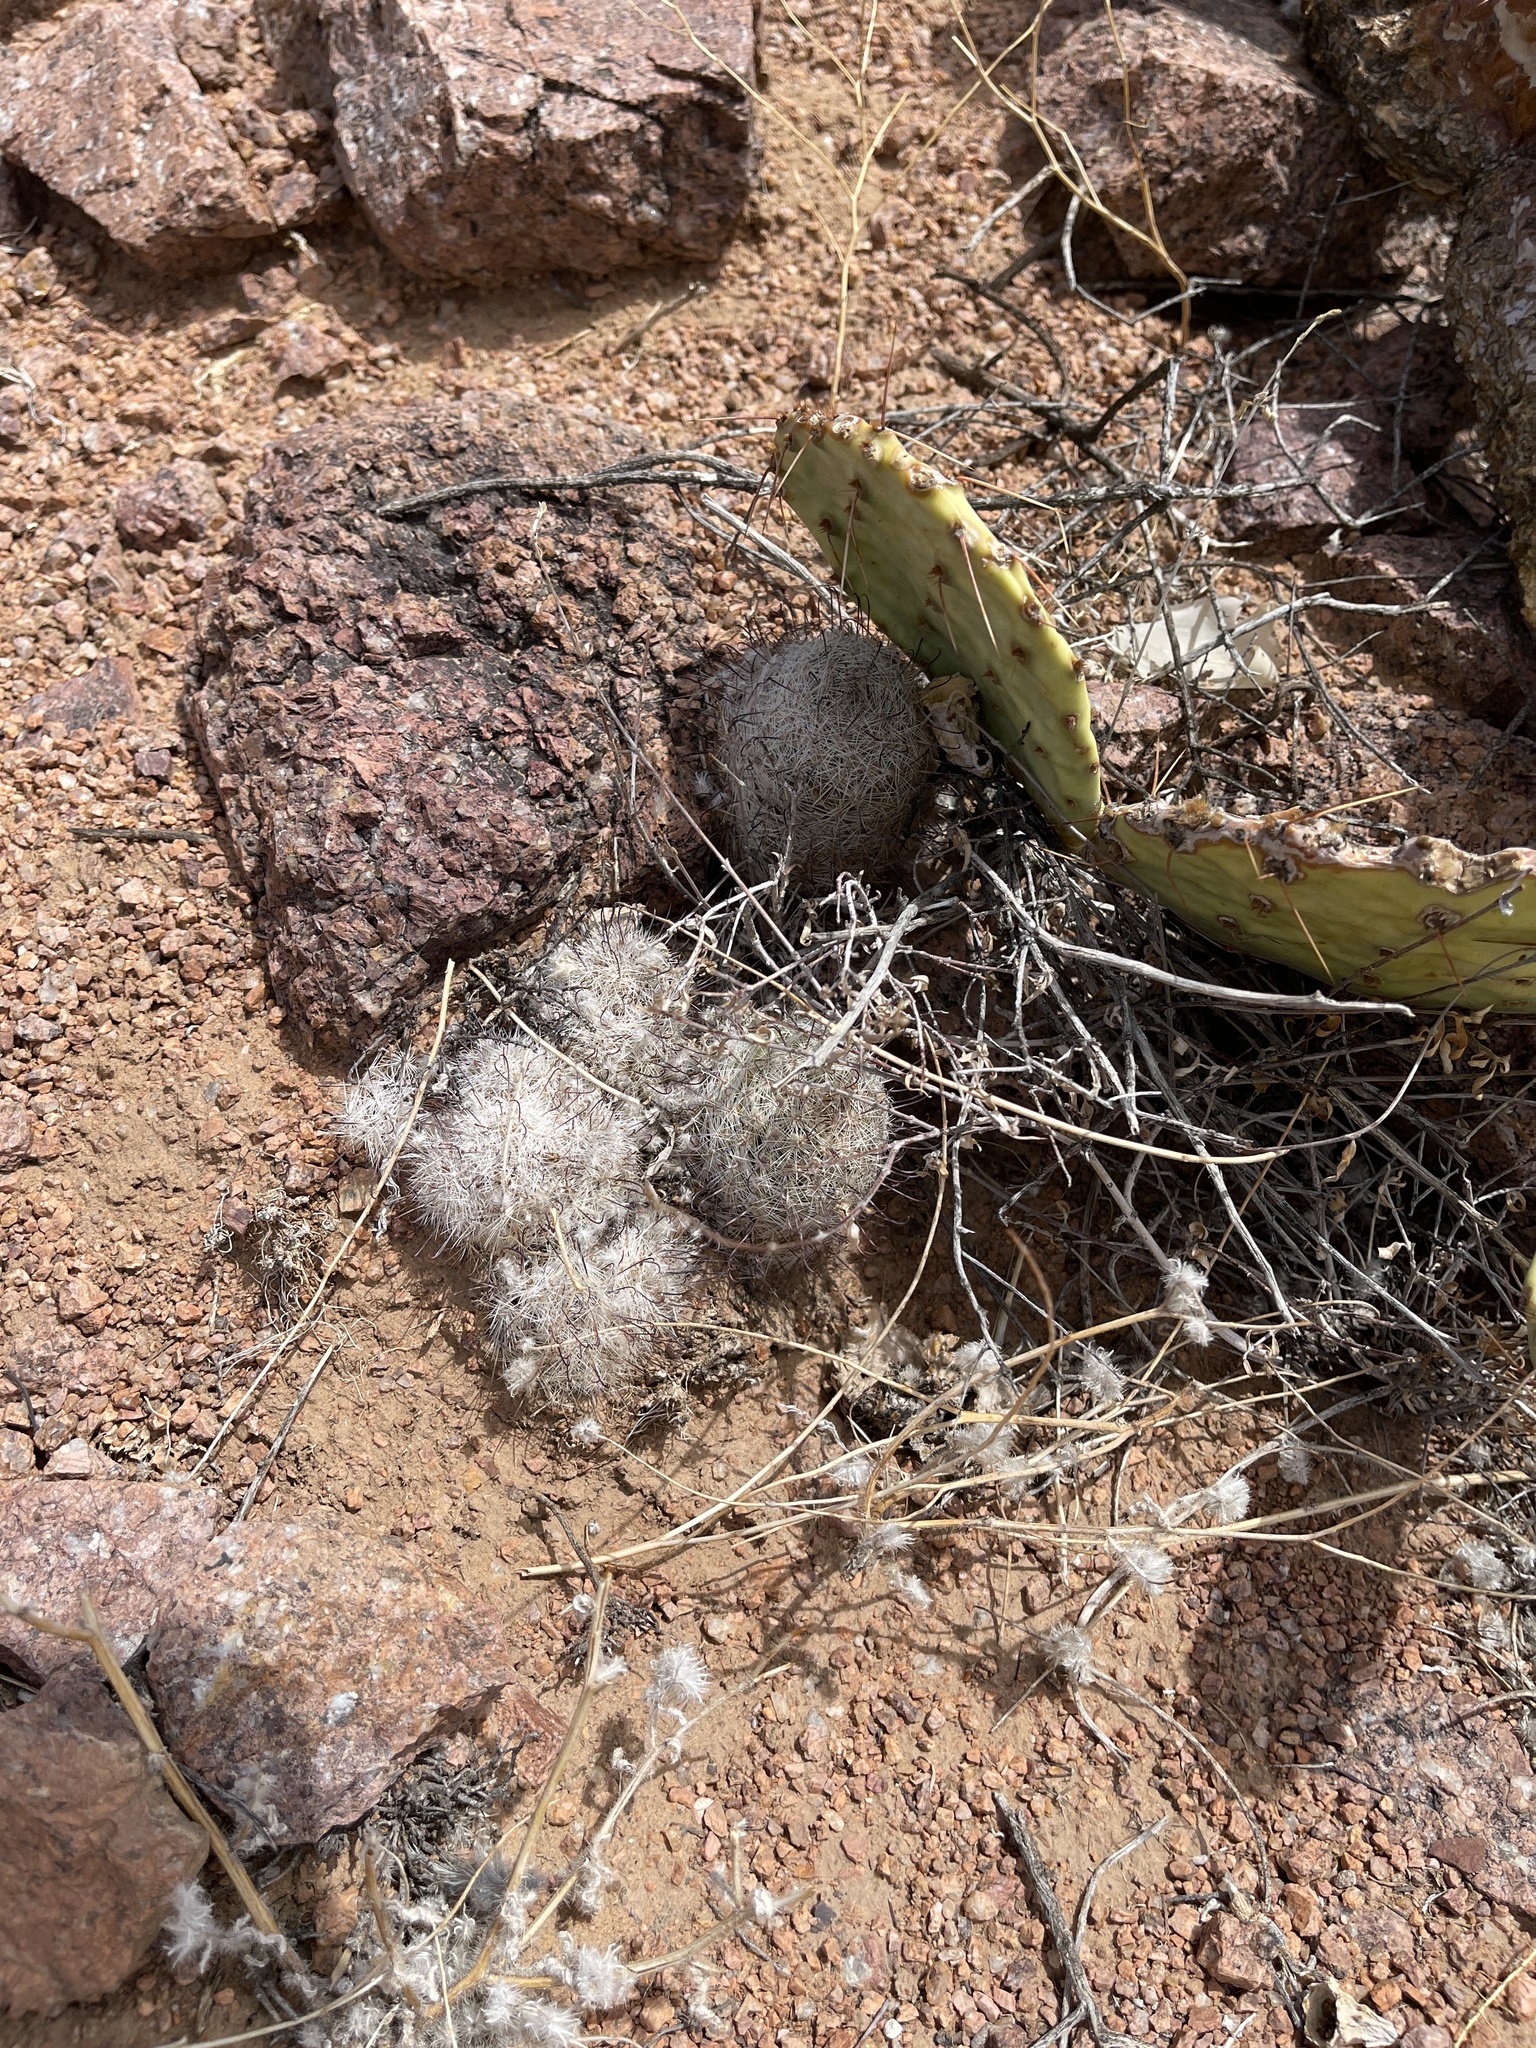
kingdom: Plantae
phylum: Tracheophyta
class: Magnoliopsida
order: Caryophyllales
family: Cactaceae
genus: Cochemiea
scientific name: Cochemiea grahamii
